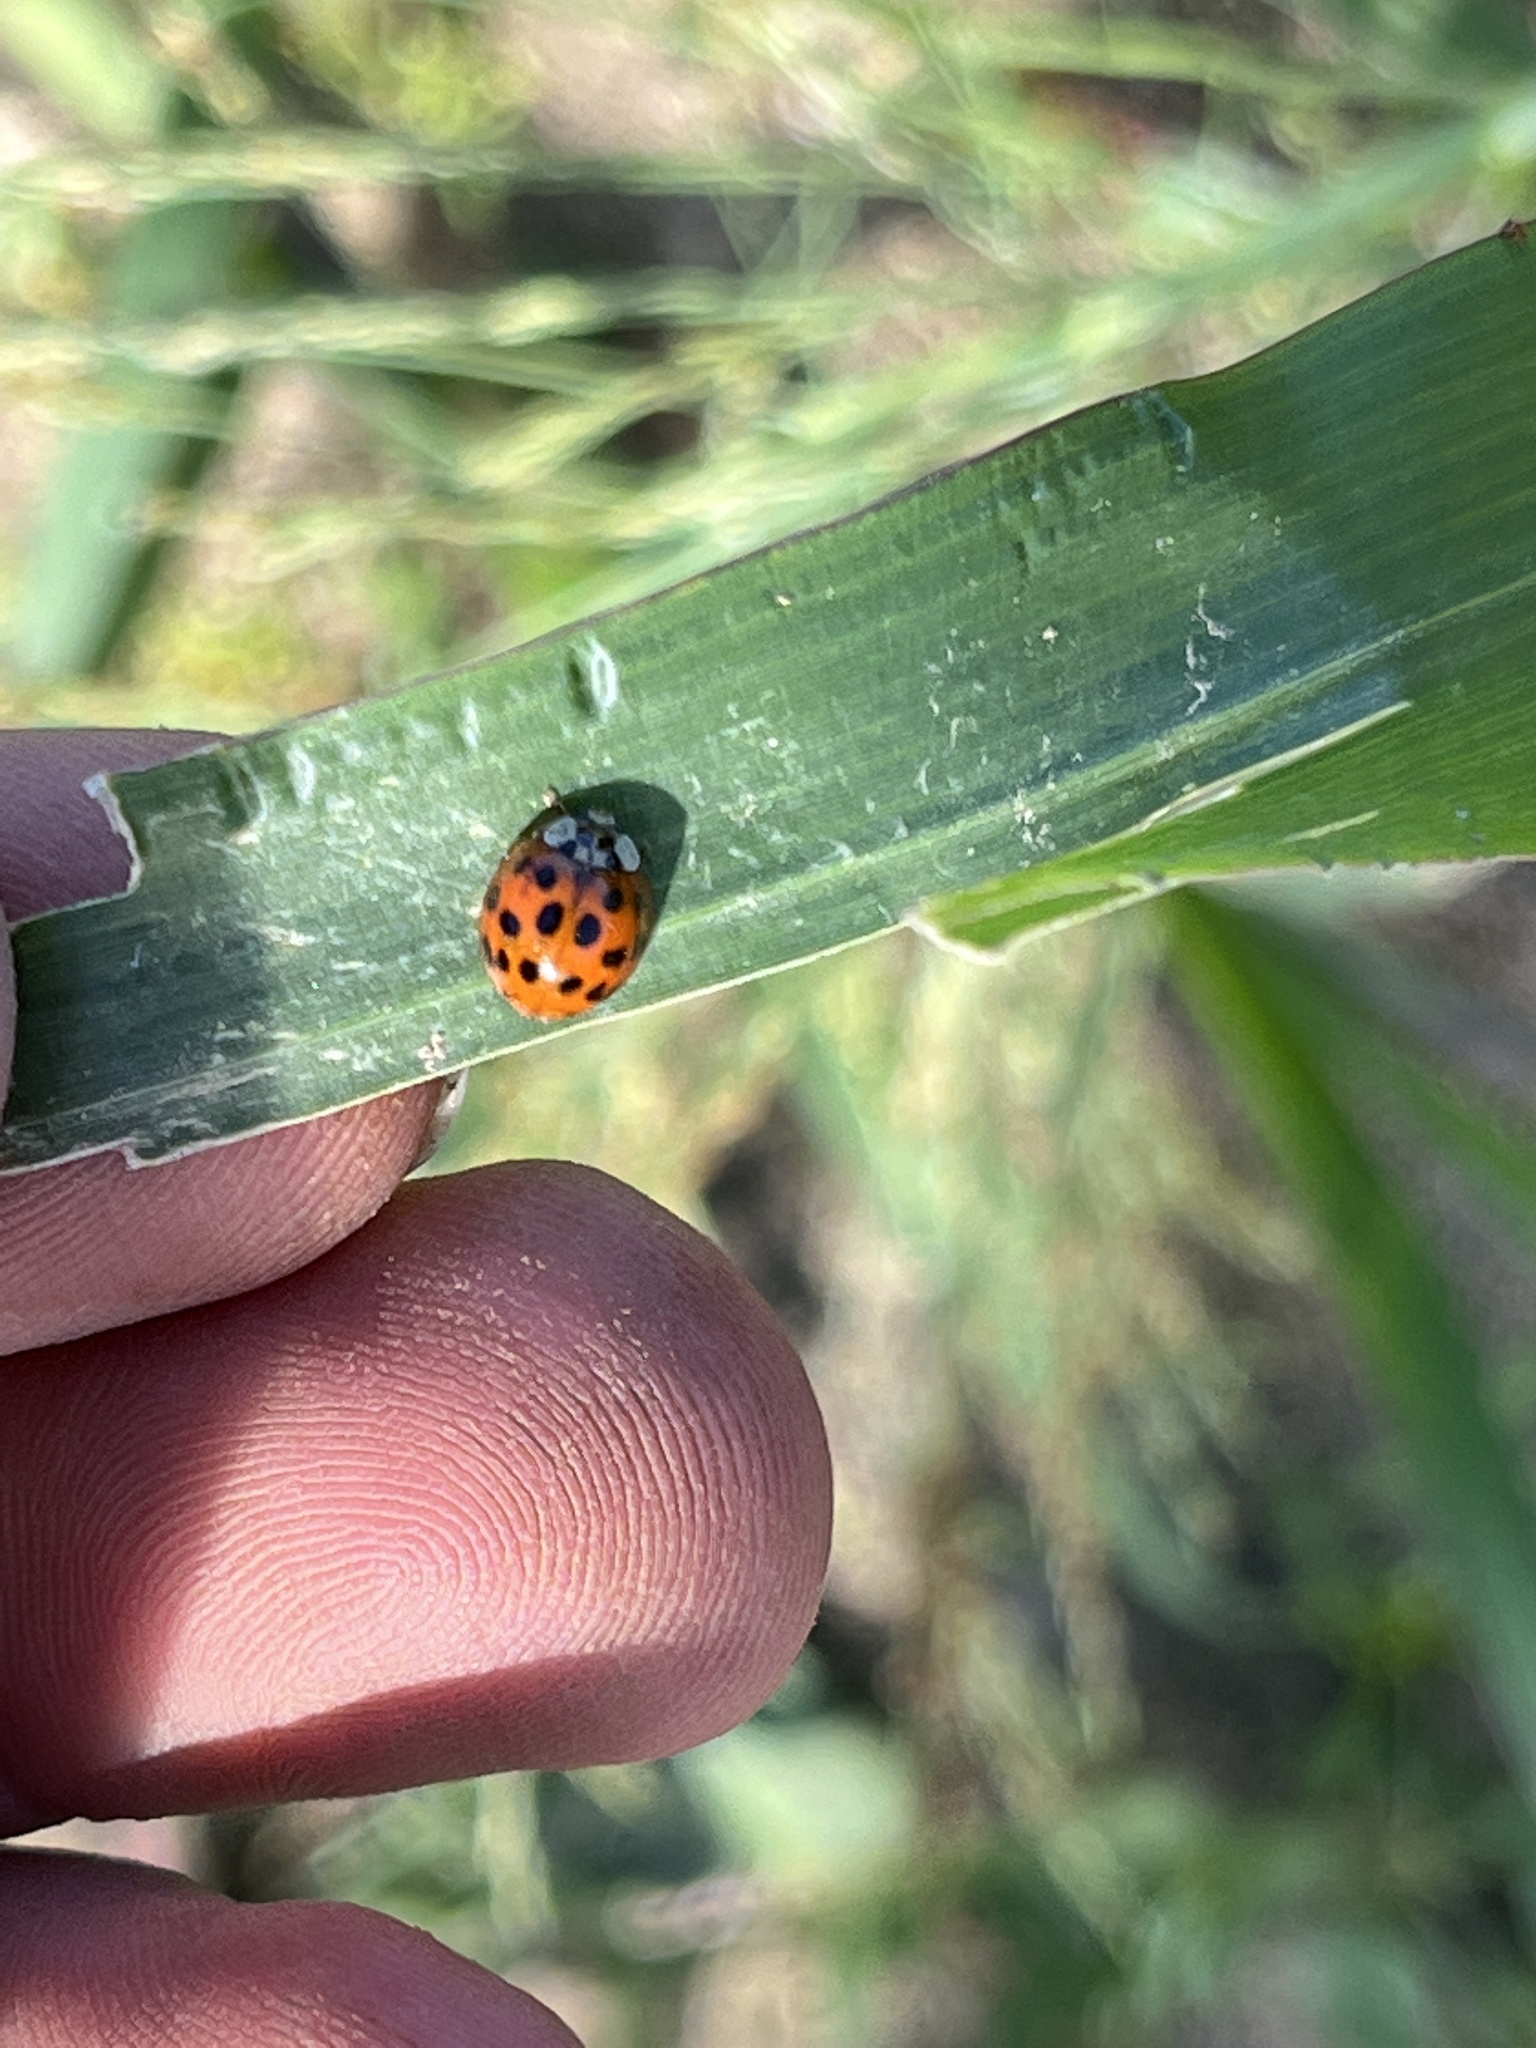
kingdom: Animalia
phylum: Arthropoda
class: Insecta
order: Coleoptera
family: Coccinellidae
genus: Harmonia
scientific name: Harmonia axyridis
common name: Harlequin ladybird
